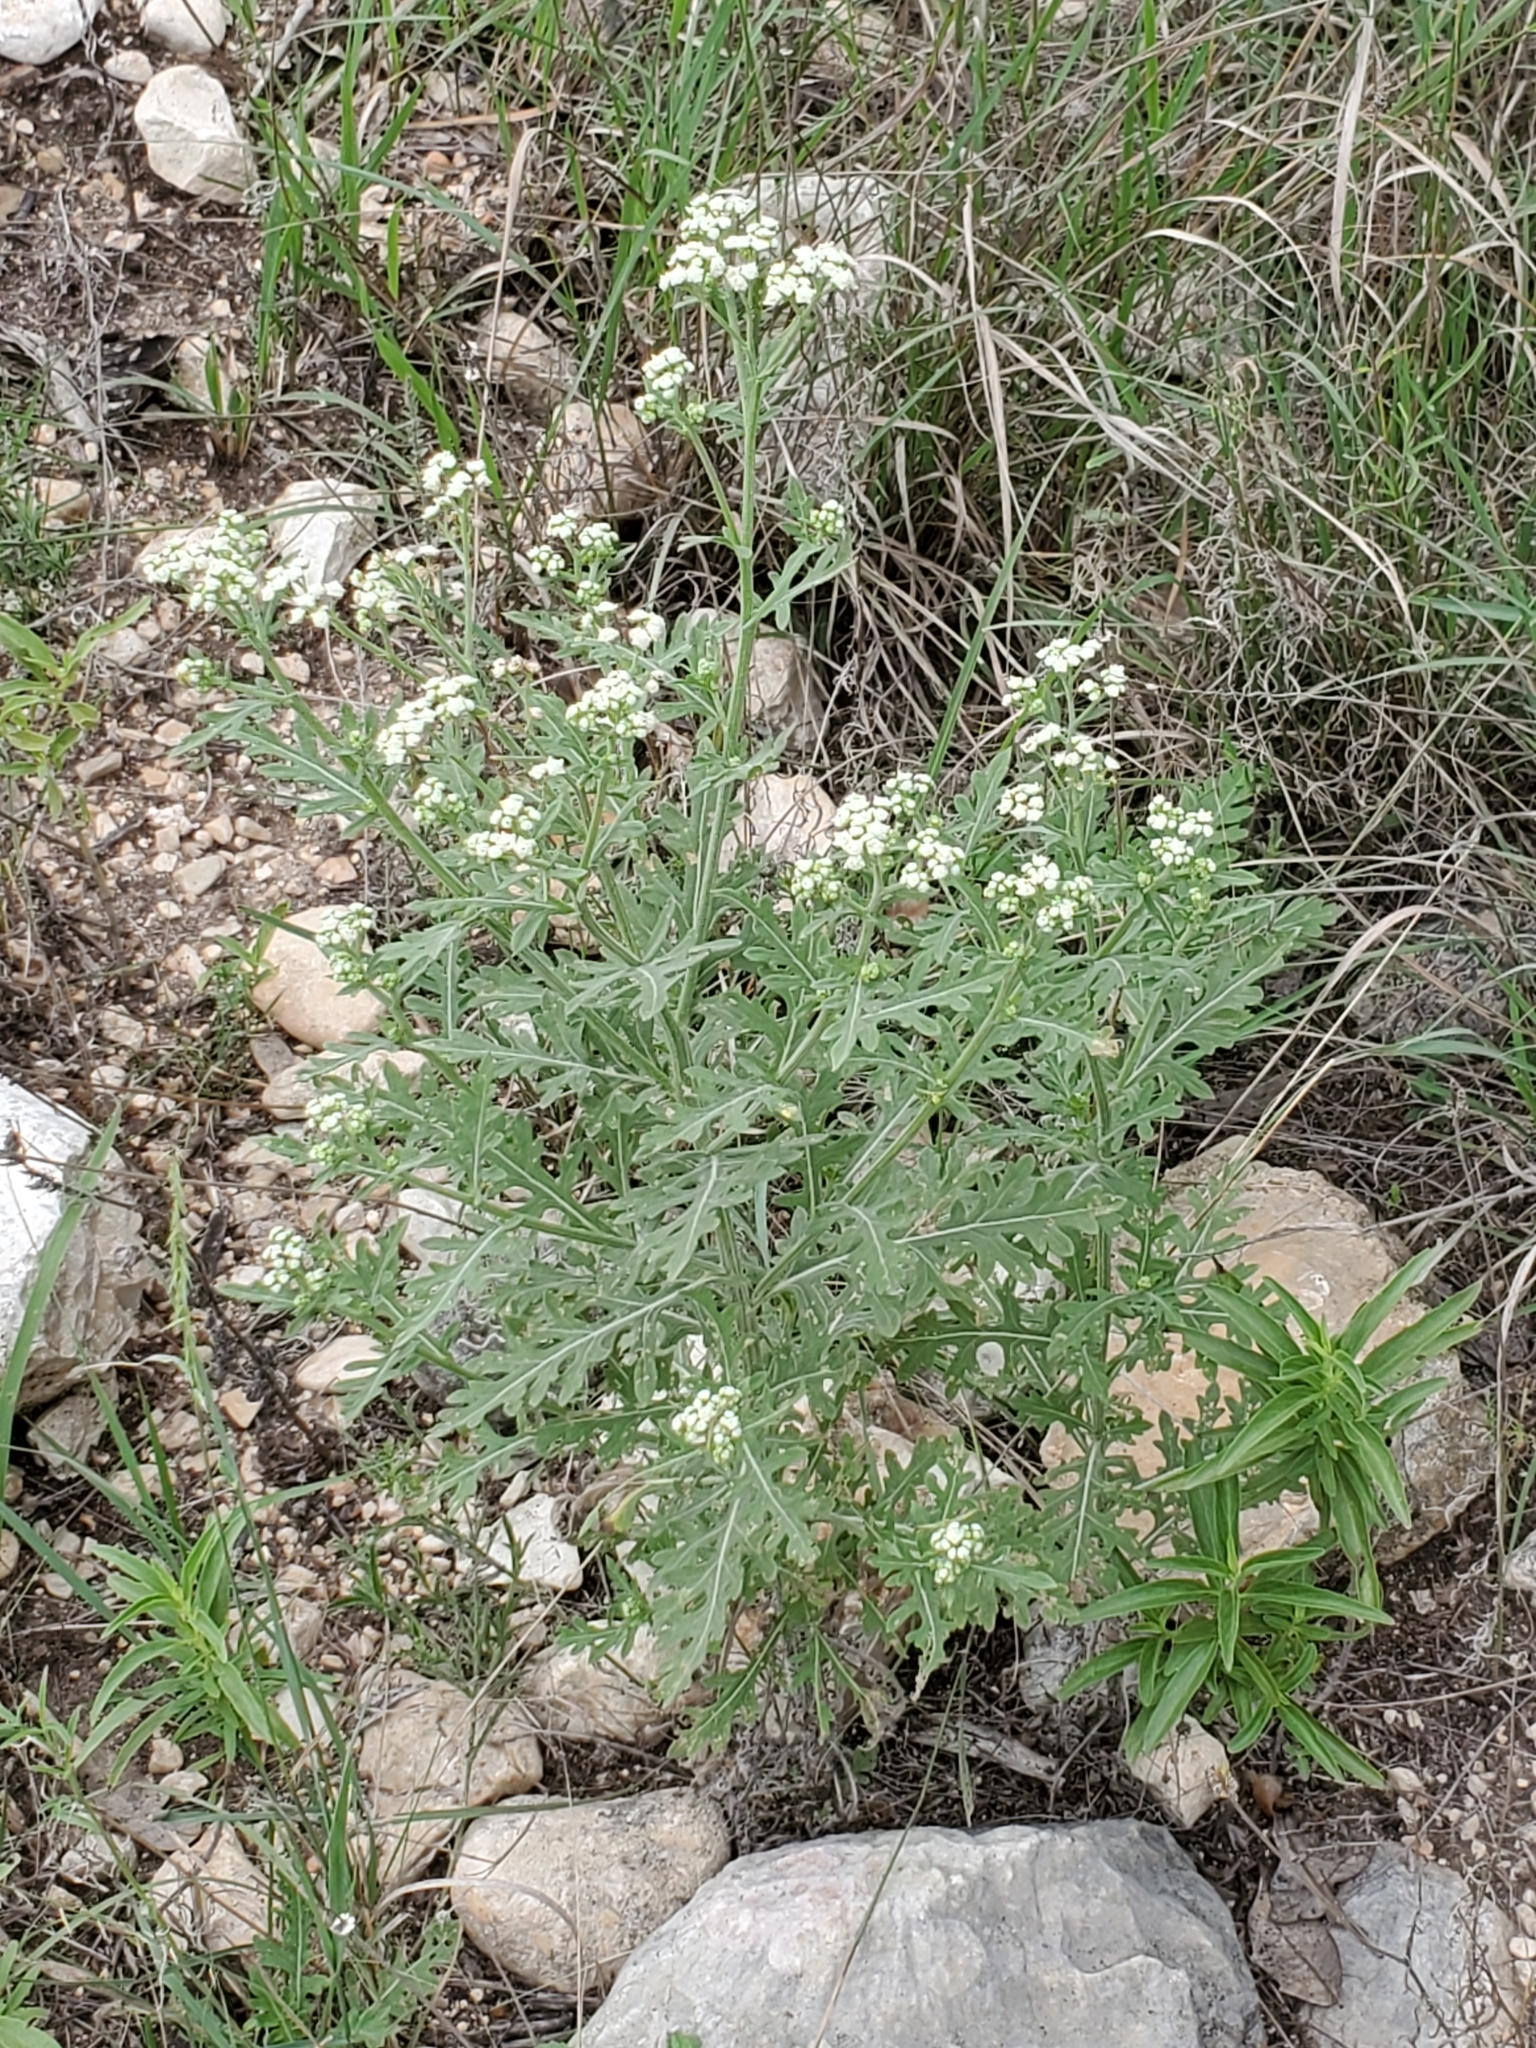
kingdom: Plantae
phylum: Tracheophyta
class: Magnoliopsida
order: Asterales
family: Asteraceae
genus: Parthenium
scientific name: Parthenium hysterophorus
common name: Santa maria feverfew
